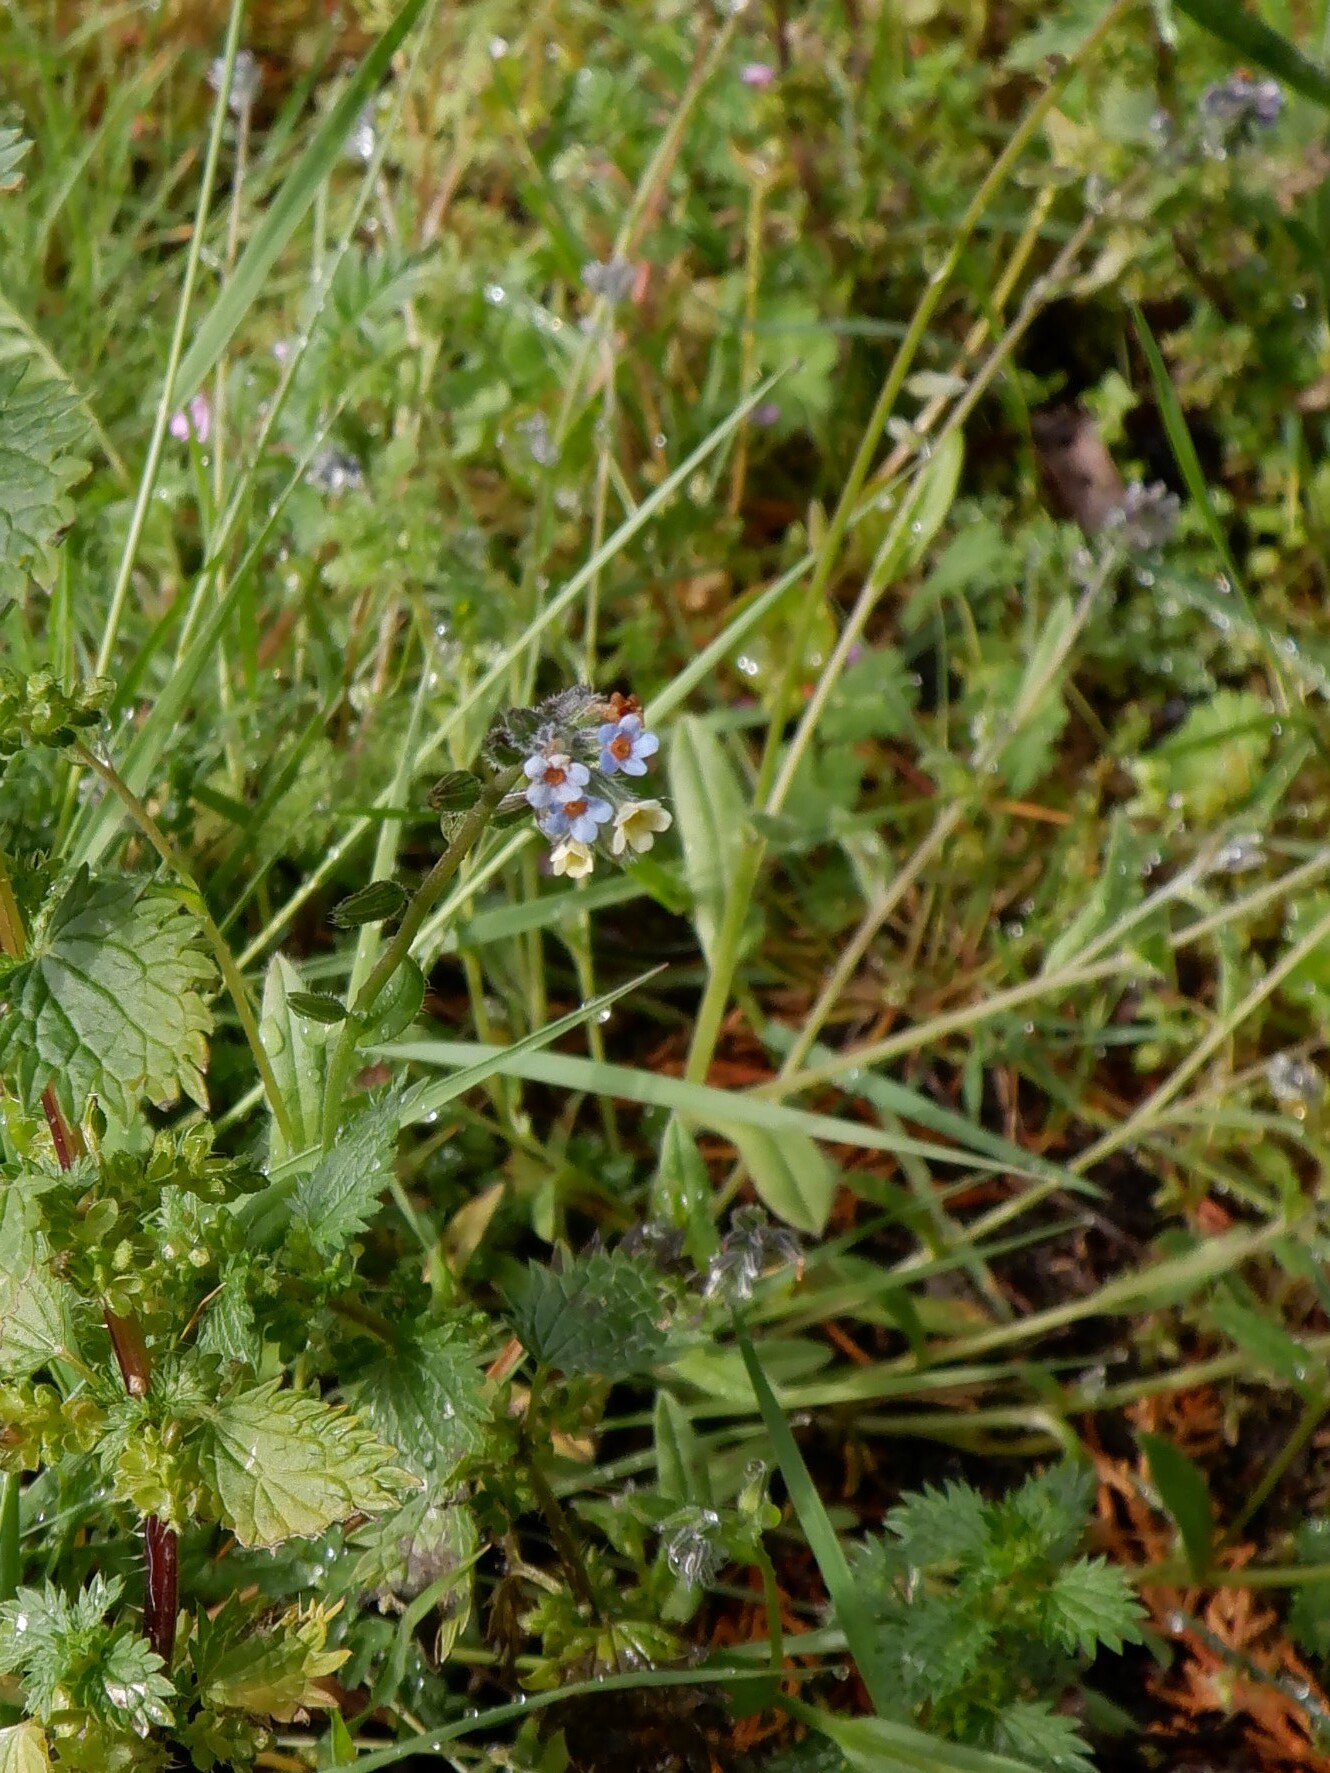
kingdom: Plantae
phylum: Tracheophyta
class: Magnoliopsida
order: Boraginales
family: Boraginaceae
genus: Myosotis
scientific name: Myosotis discolor
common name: Changing forget-me-not
